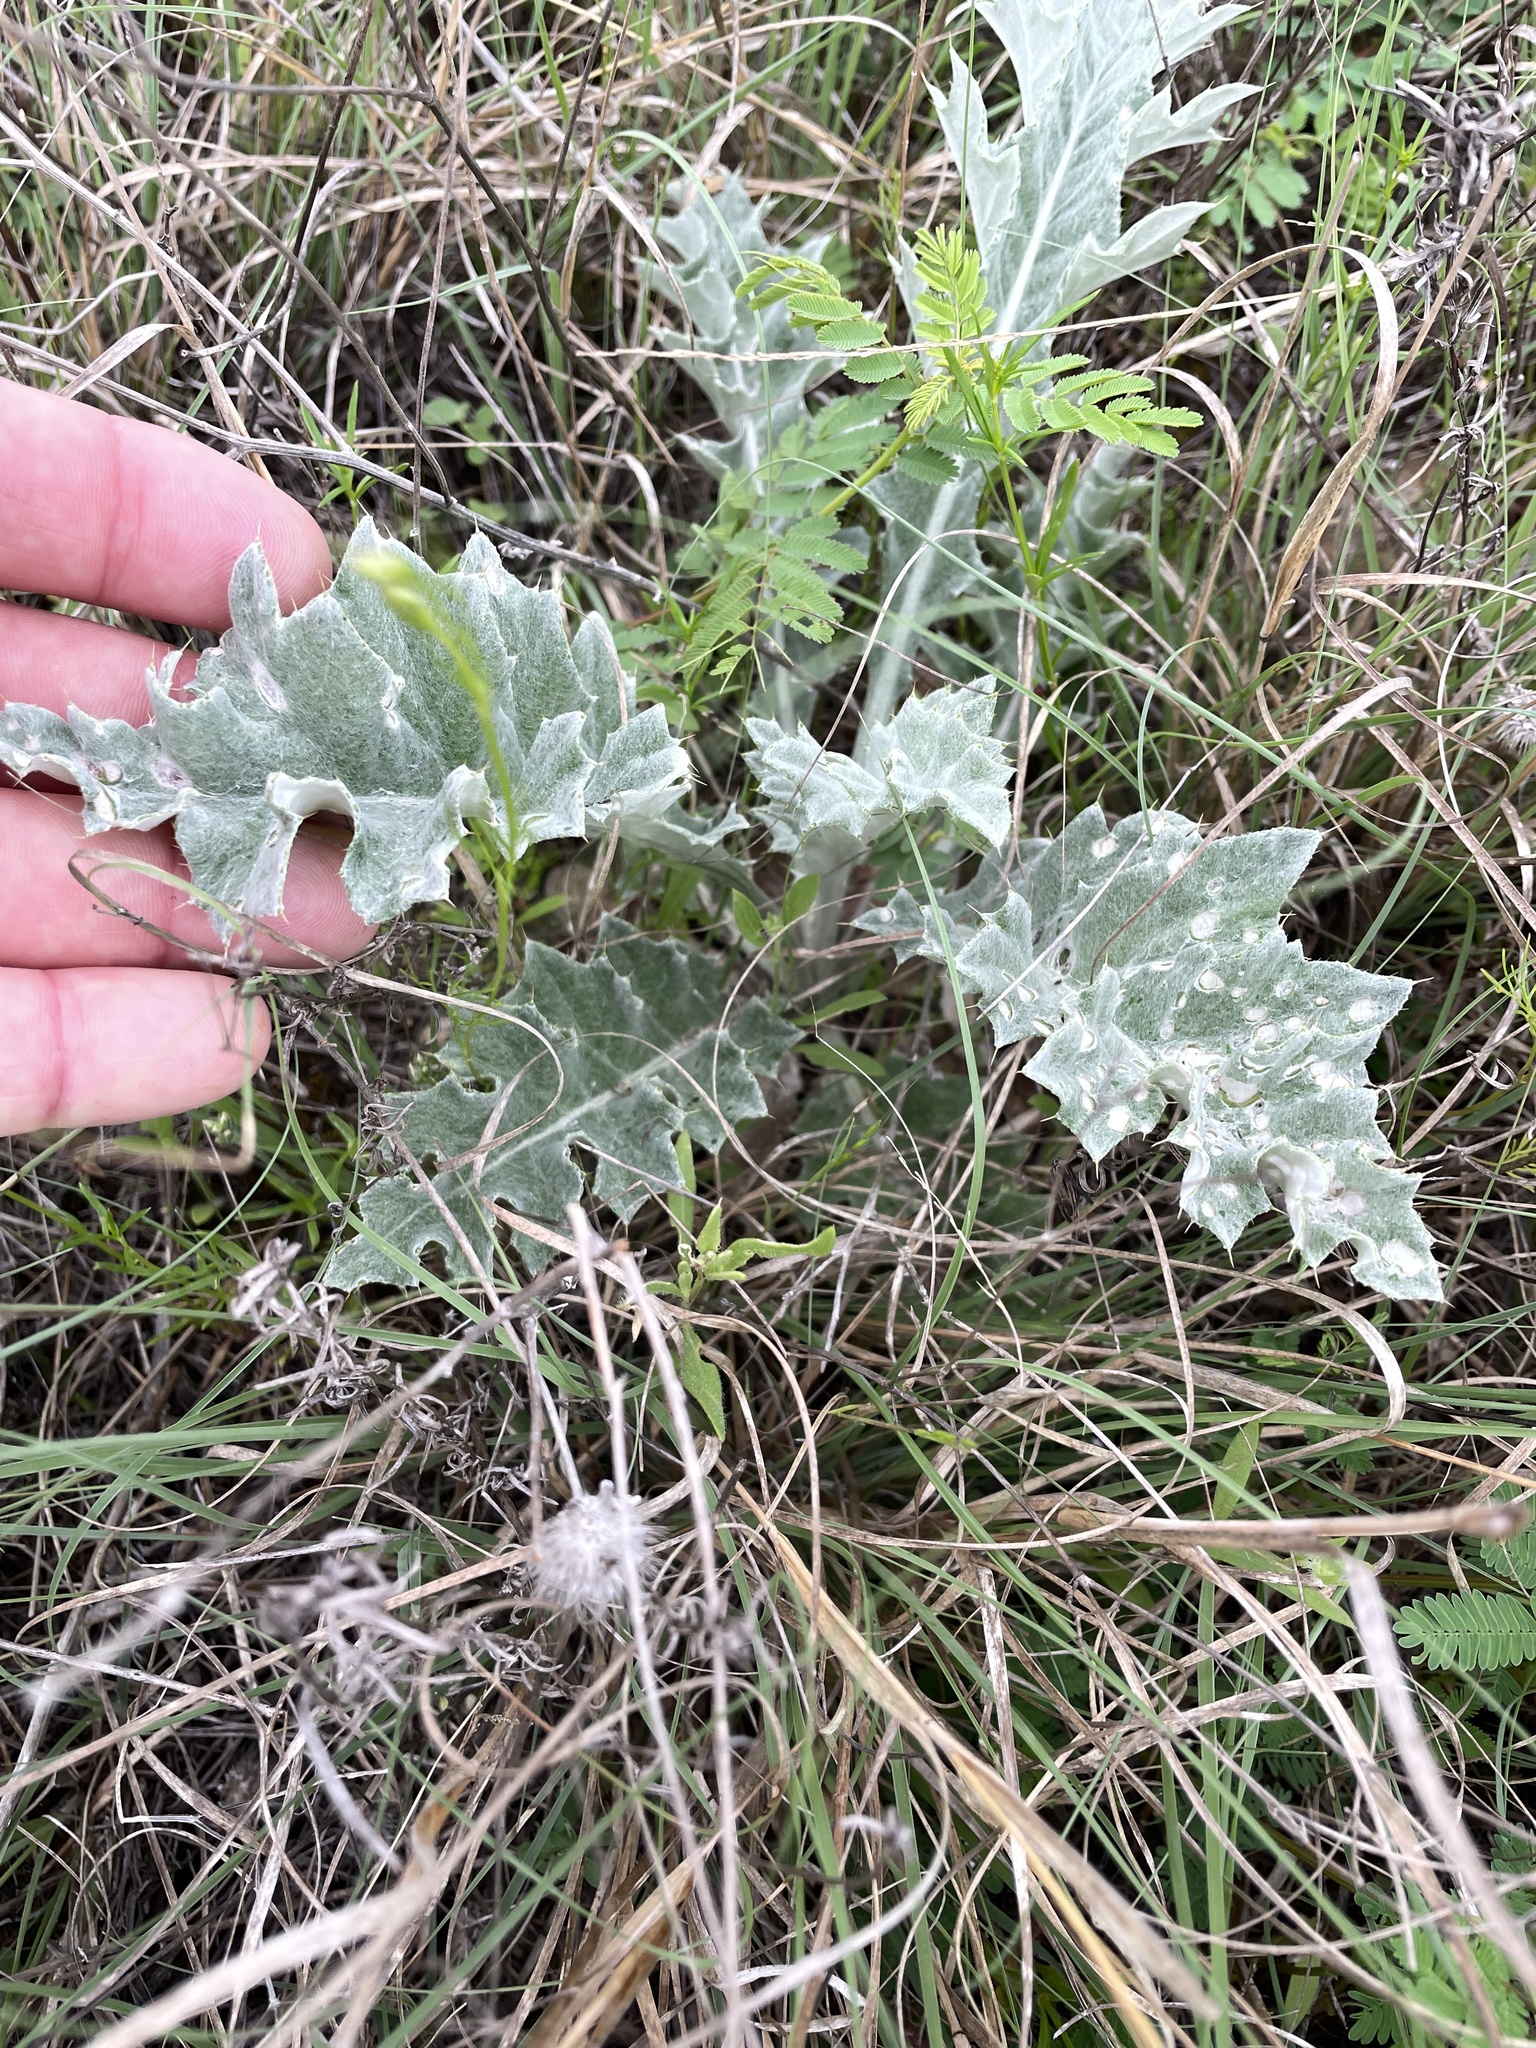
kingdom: Plantae
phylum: Tracheophyta
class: Magnoliopsida
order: Asterales
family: Asteraceae
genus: Cirsium
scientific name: Cirsium undulatum
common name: Pasture thistle
